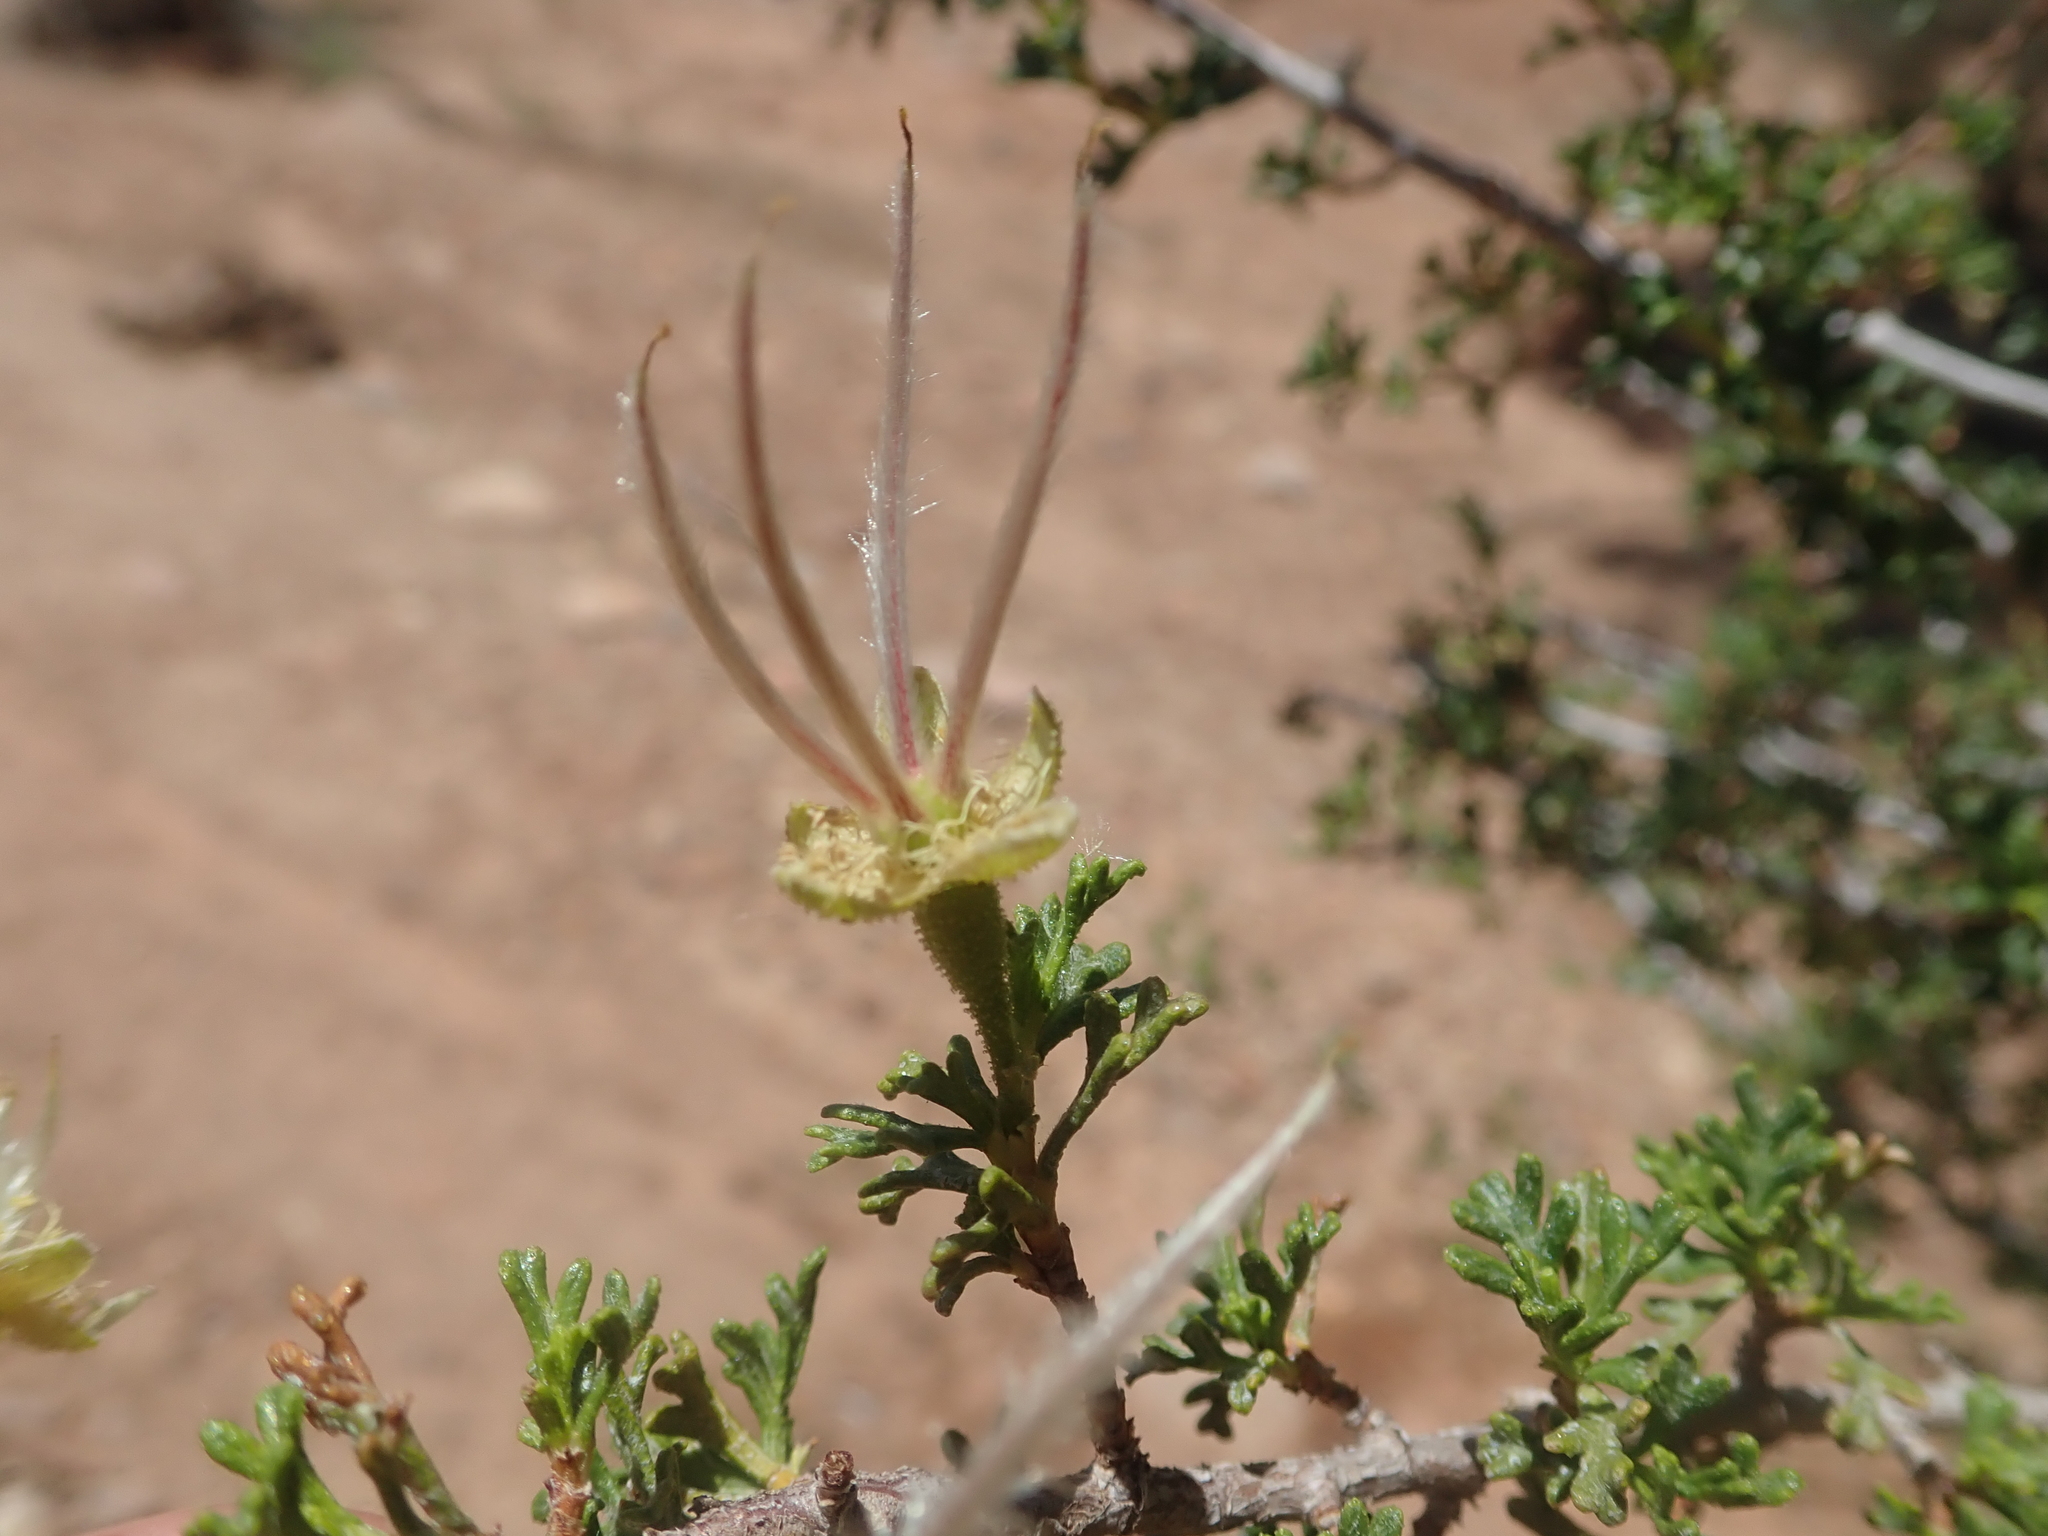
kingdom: Plantae
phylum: Tracheophyta
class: Magnoliopsida
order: Rosales
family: Rosaceae
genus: Purshia
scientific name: Purshia stansburiana
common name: Stansbury's cliffrose
